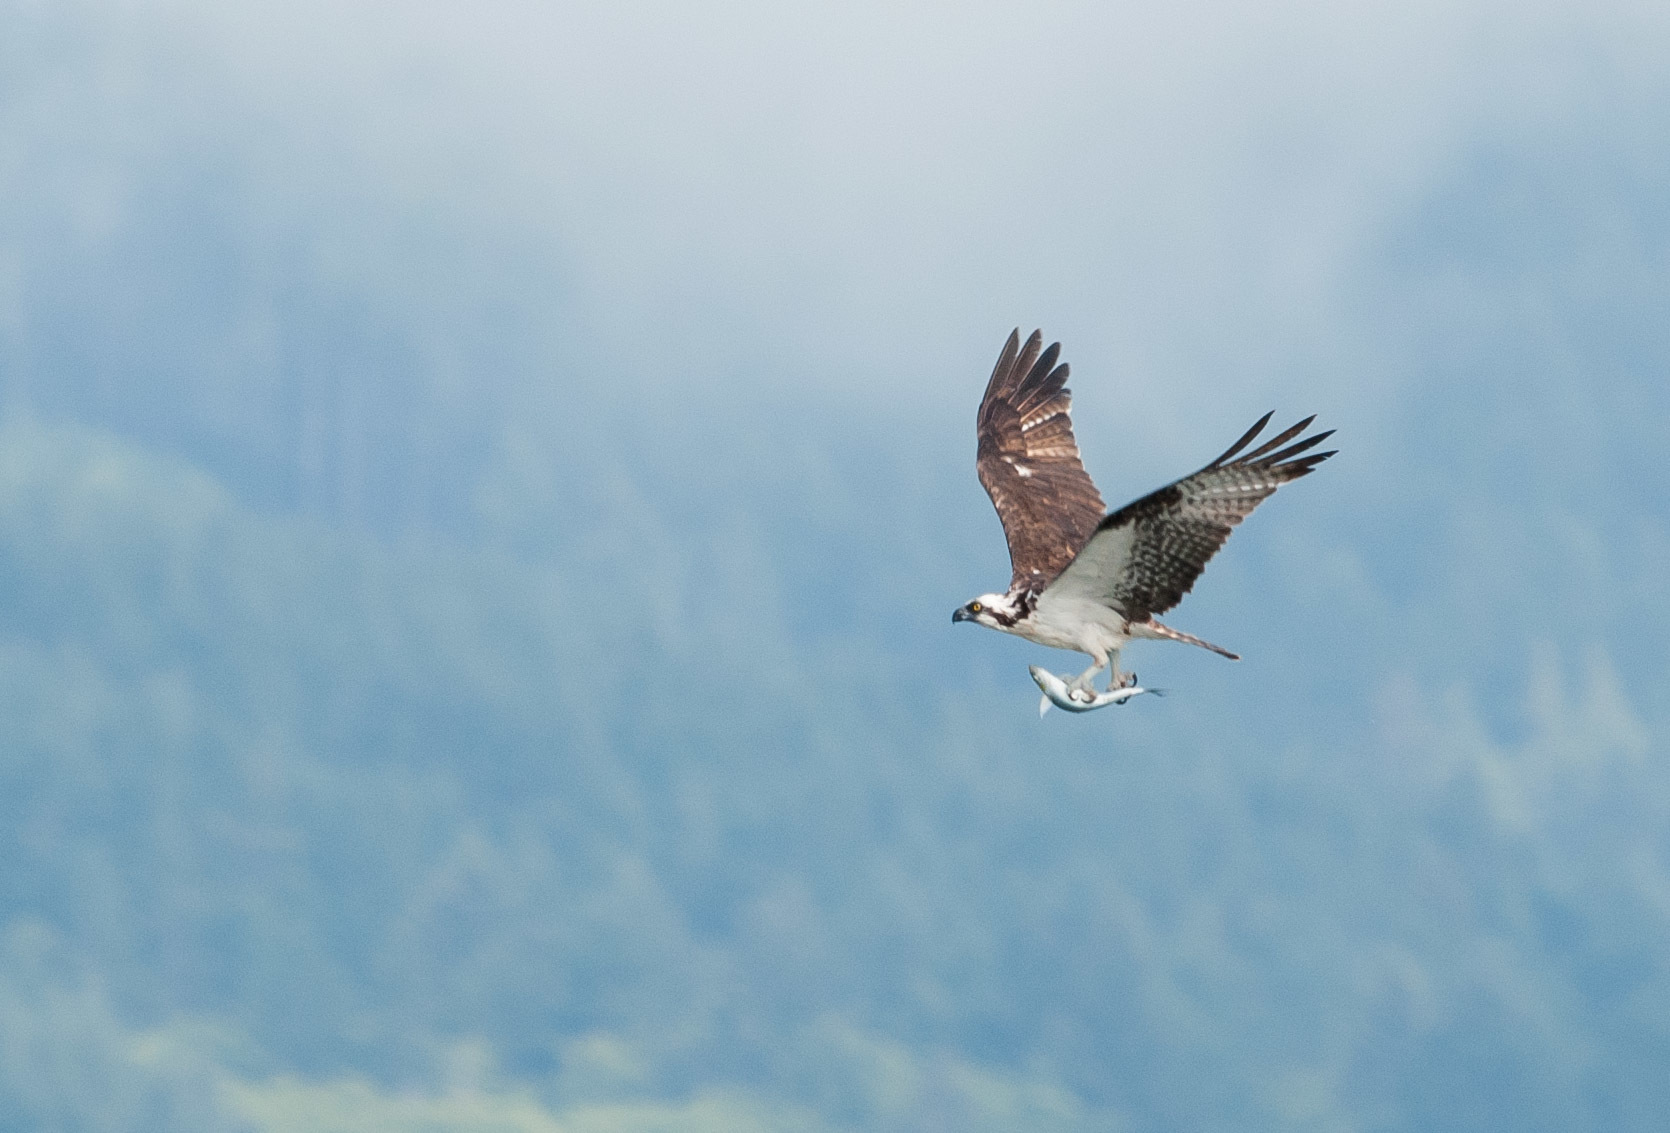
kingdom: Animalia
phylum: Chordata
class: Aves
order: Accipitriformes
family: Pandionidae
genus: Pandion
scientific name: Pandion haliaetus
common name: Osprey
